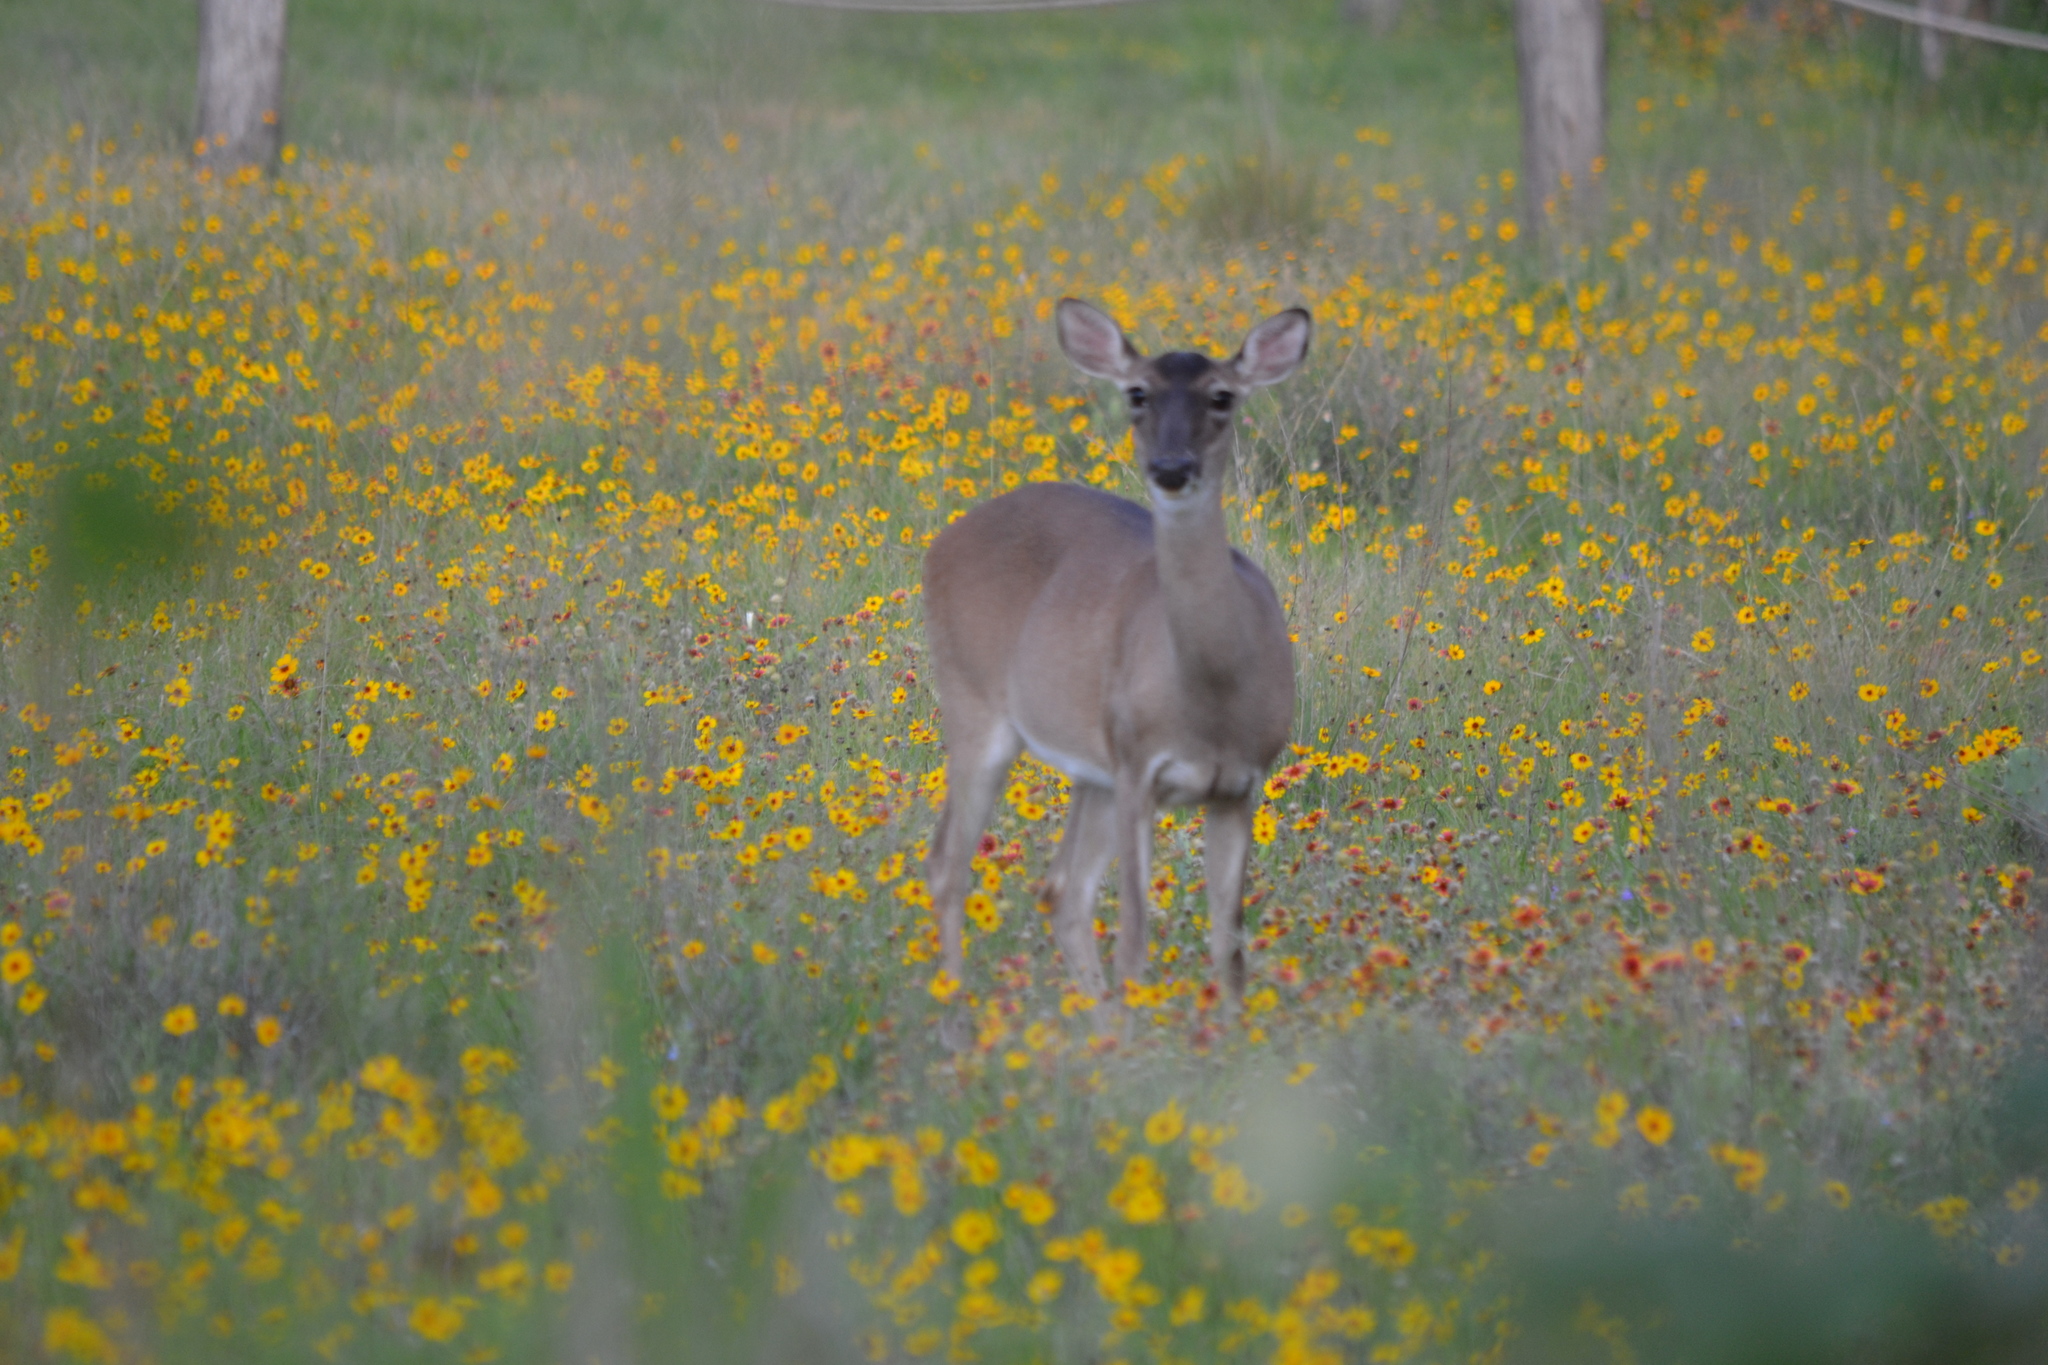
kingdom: Animalia
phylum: Chordata
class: Mammalia
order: Artiodactyla
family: Cervidae
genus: Odocoileus
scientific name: Odocoileus virginianus
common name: White-tailed deer
